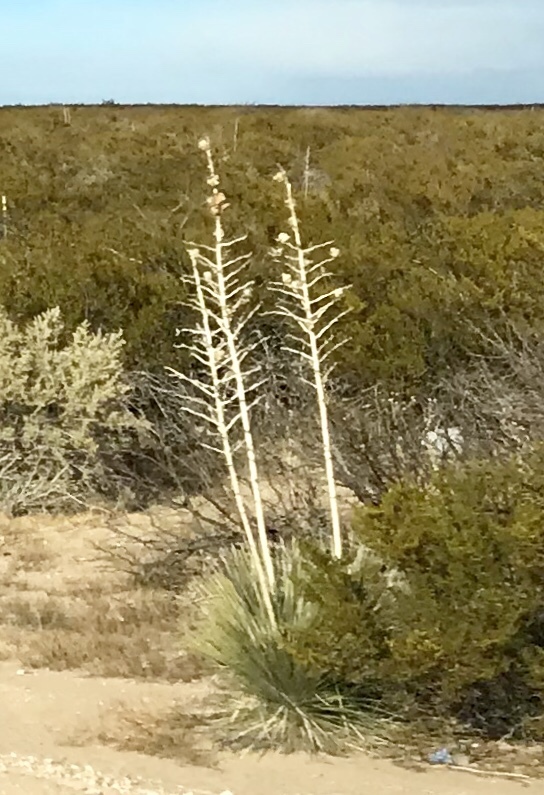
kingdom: Plantae
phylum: Tracheophyta
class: Liliopsida
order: Asparagales
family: Asparagaceae
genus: Yucca
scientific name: Yucca elata
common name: Palmella
